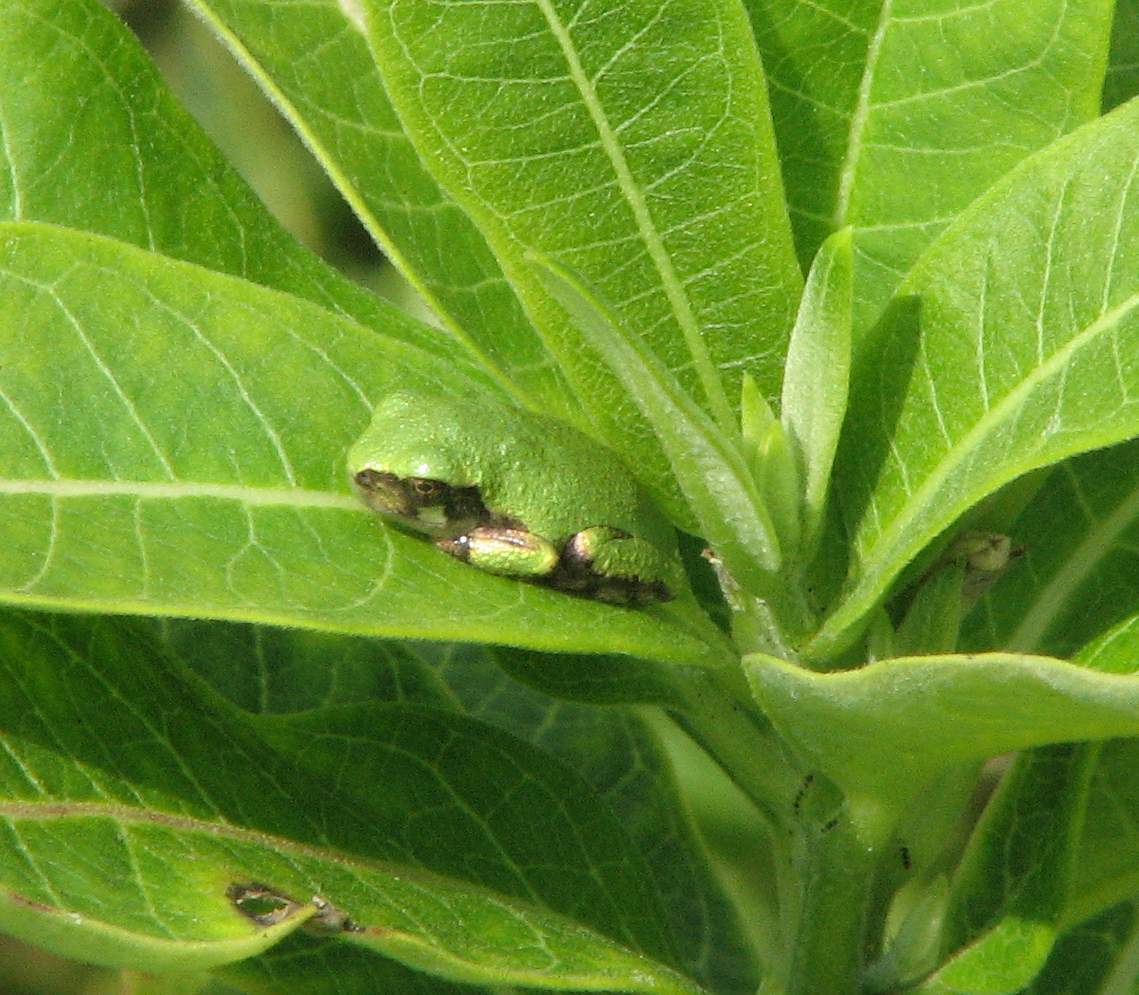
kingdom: Animalia
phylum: Chordata
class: Amphibia
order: Anura
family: Hylidae
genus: Dryophytes
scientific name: Dryophytes versicolor
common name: Gray treefrog
